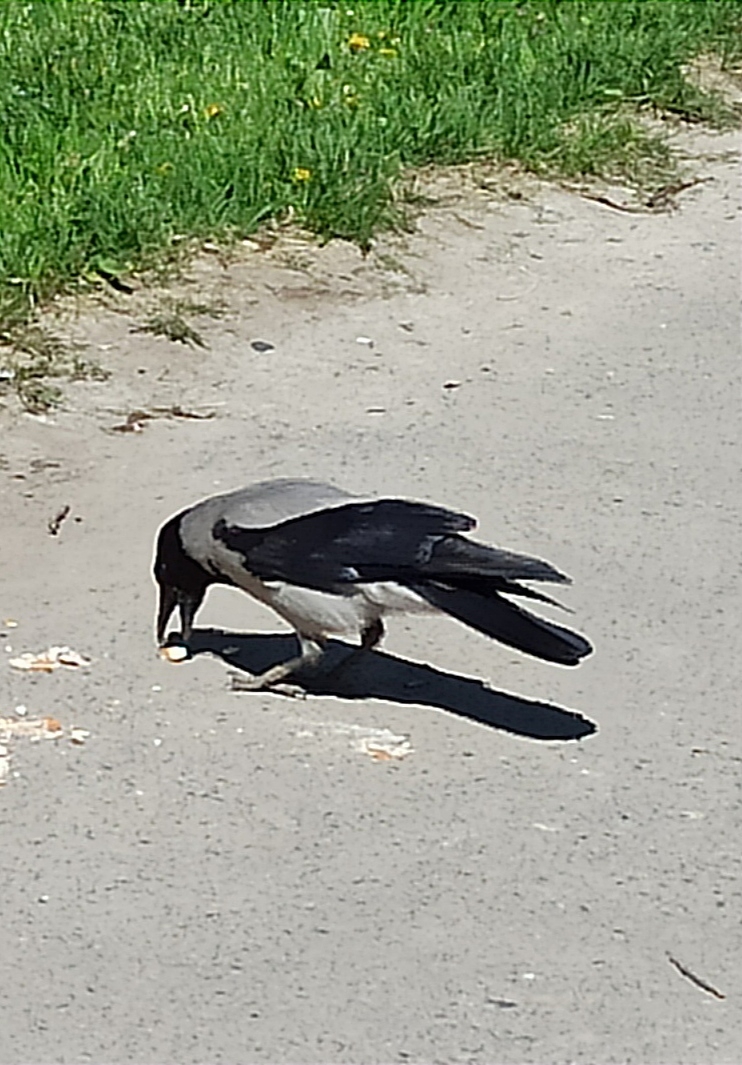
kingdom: Animalia
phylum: Chordata
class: Aves
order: Passeriformes
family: Corvidae
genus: Corvus
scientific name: Corvus cornix
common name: Hooded crow
